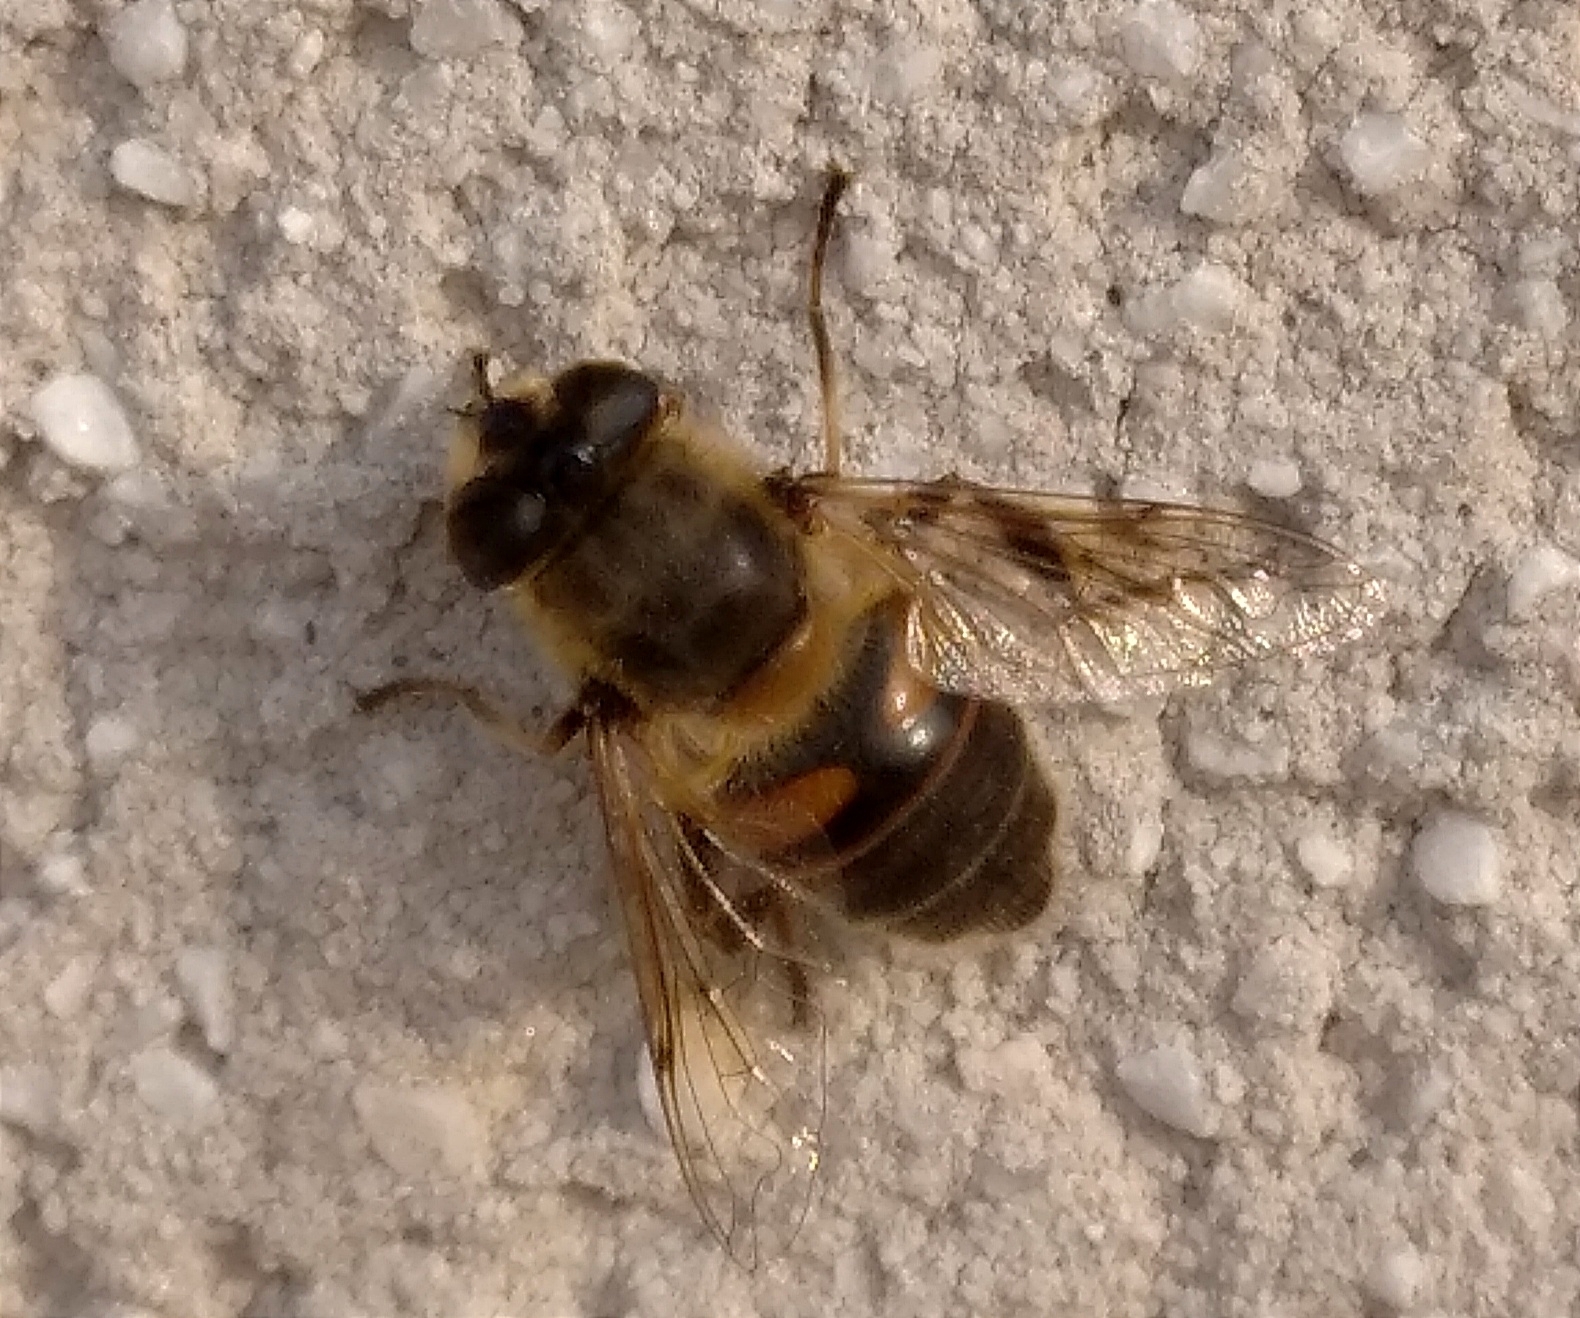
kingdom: Animalia
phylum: Arthropoda
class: Insecta
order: Diptera
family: Syrphidae
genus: Eristalis
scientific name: Eristalis tenax
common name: Drone fly
